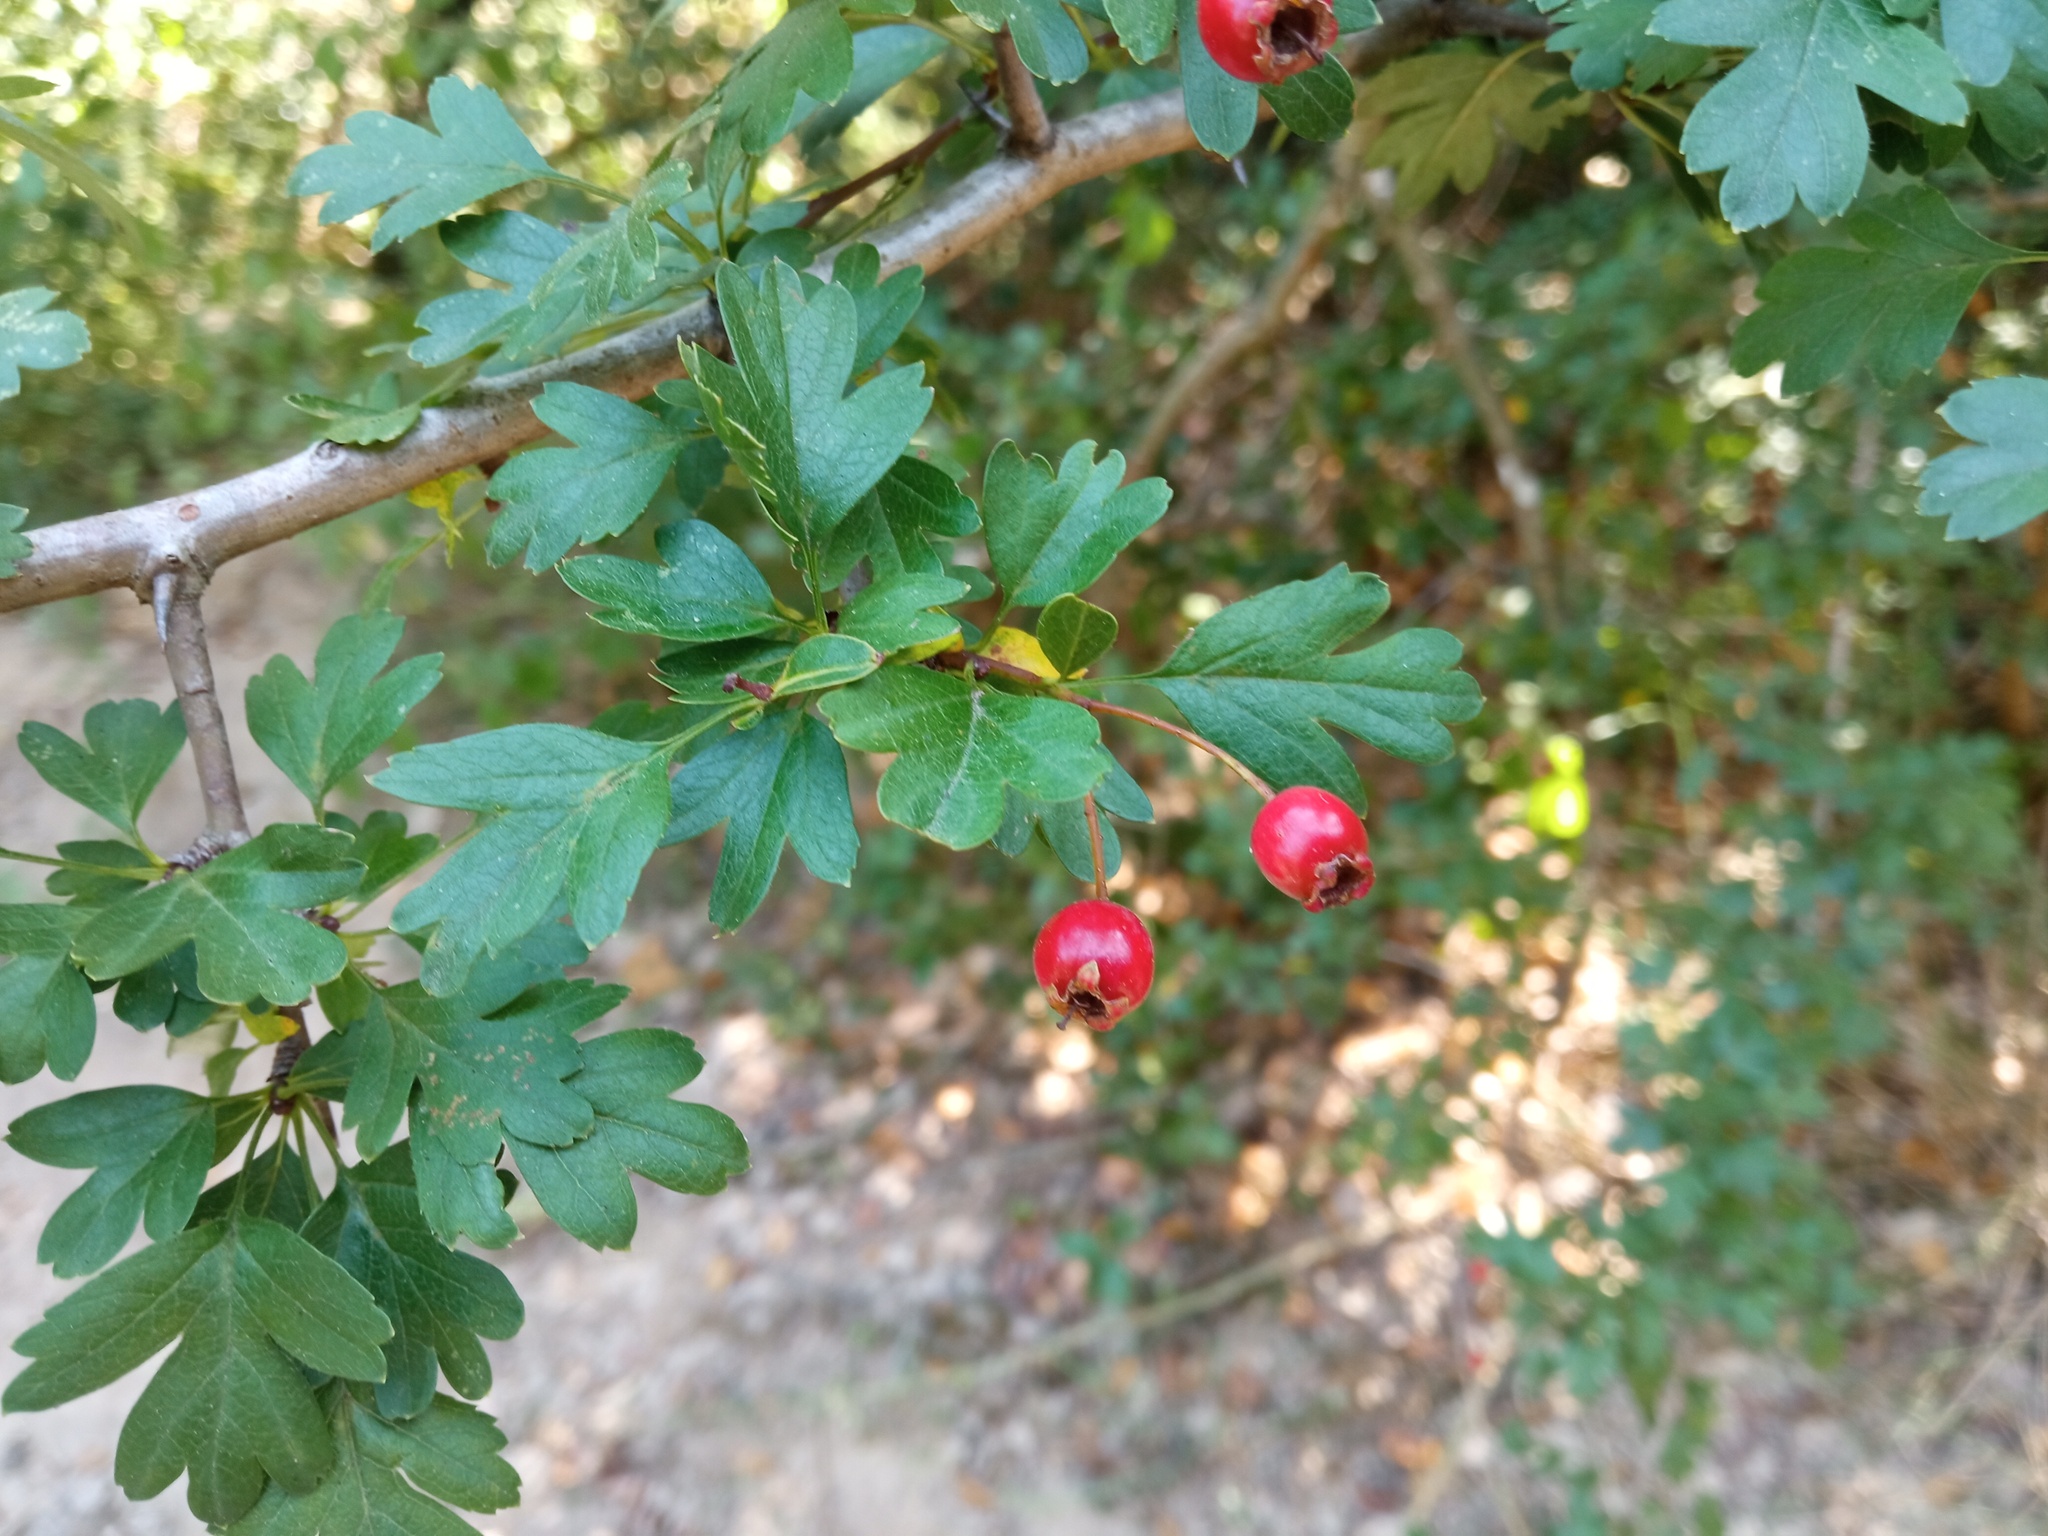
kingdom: Plantae
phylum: Tracheophyta
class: Magnoliopsida
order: Rosales
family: Rosaceae
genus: Crataegus
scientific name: Crataegus monogyna
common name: Hawthorn
